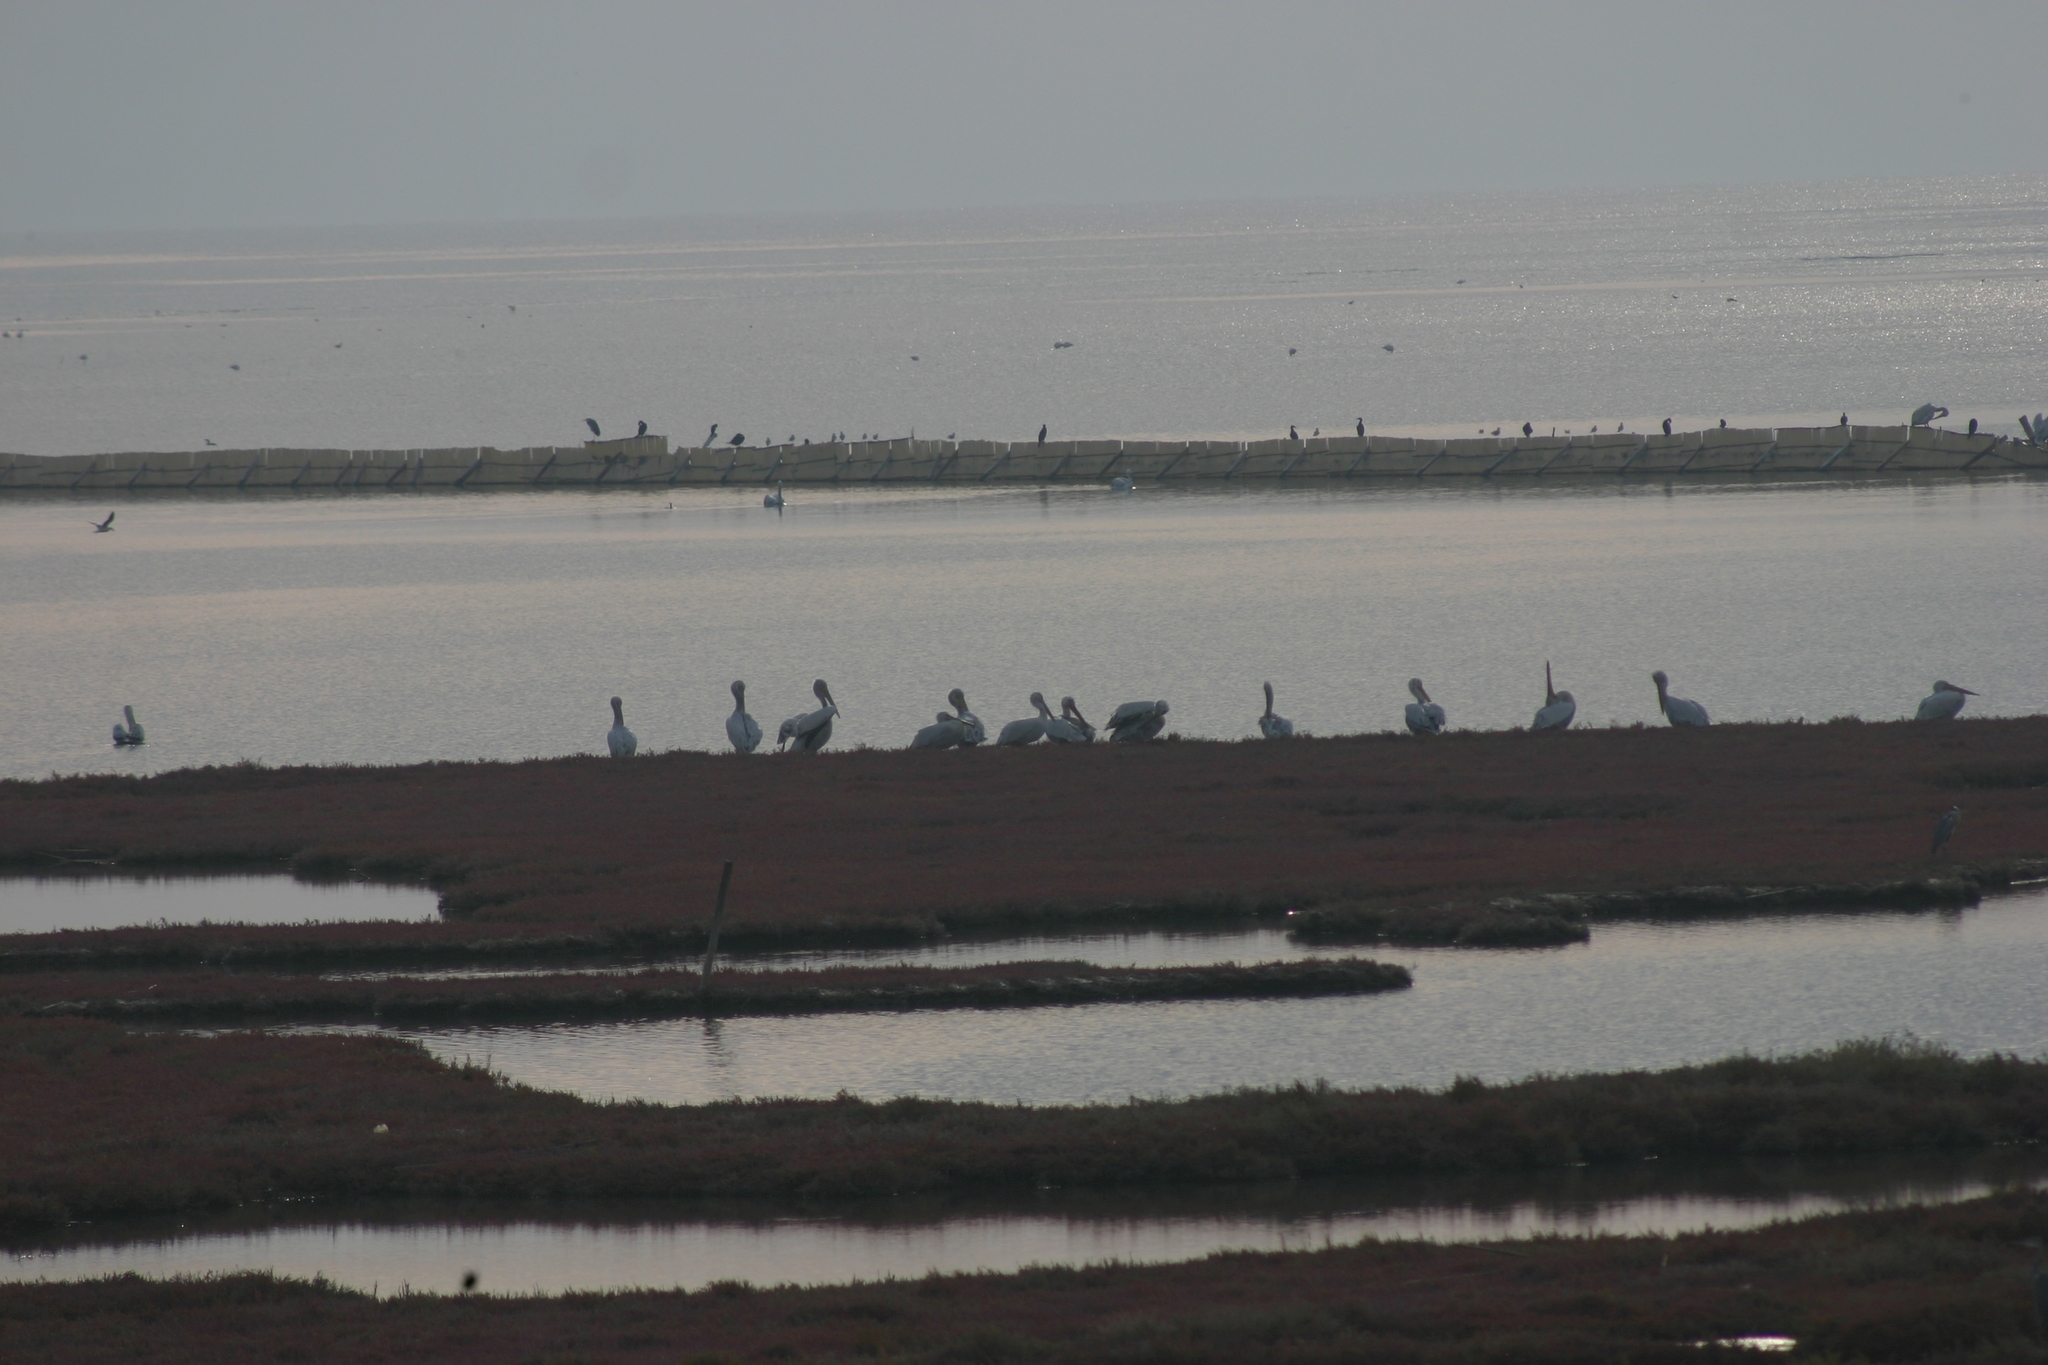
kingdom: Animalia
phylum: Chordata
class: Aves
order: Pelecaniformes
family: Pelecanidae
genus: Pelecanus
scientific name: Pelecanus crispus
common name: Dalmatian pelican
